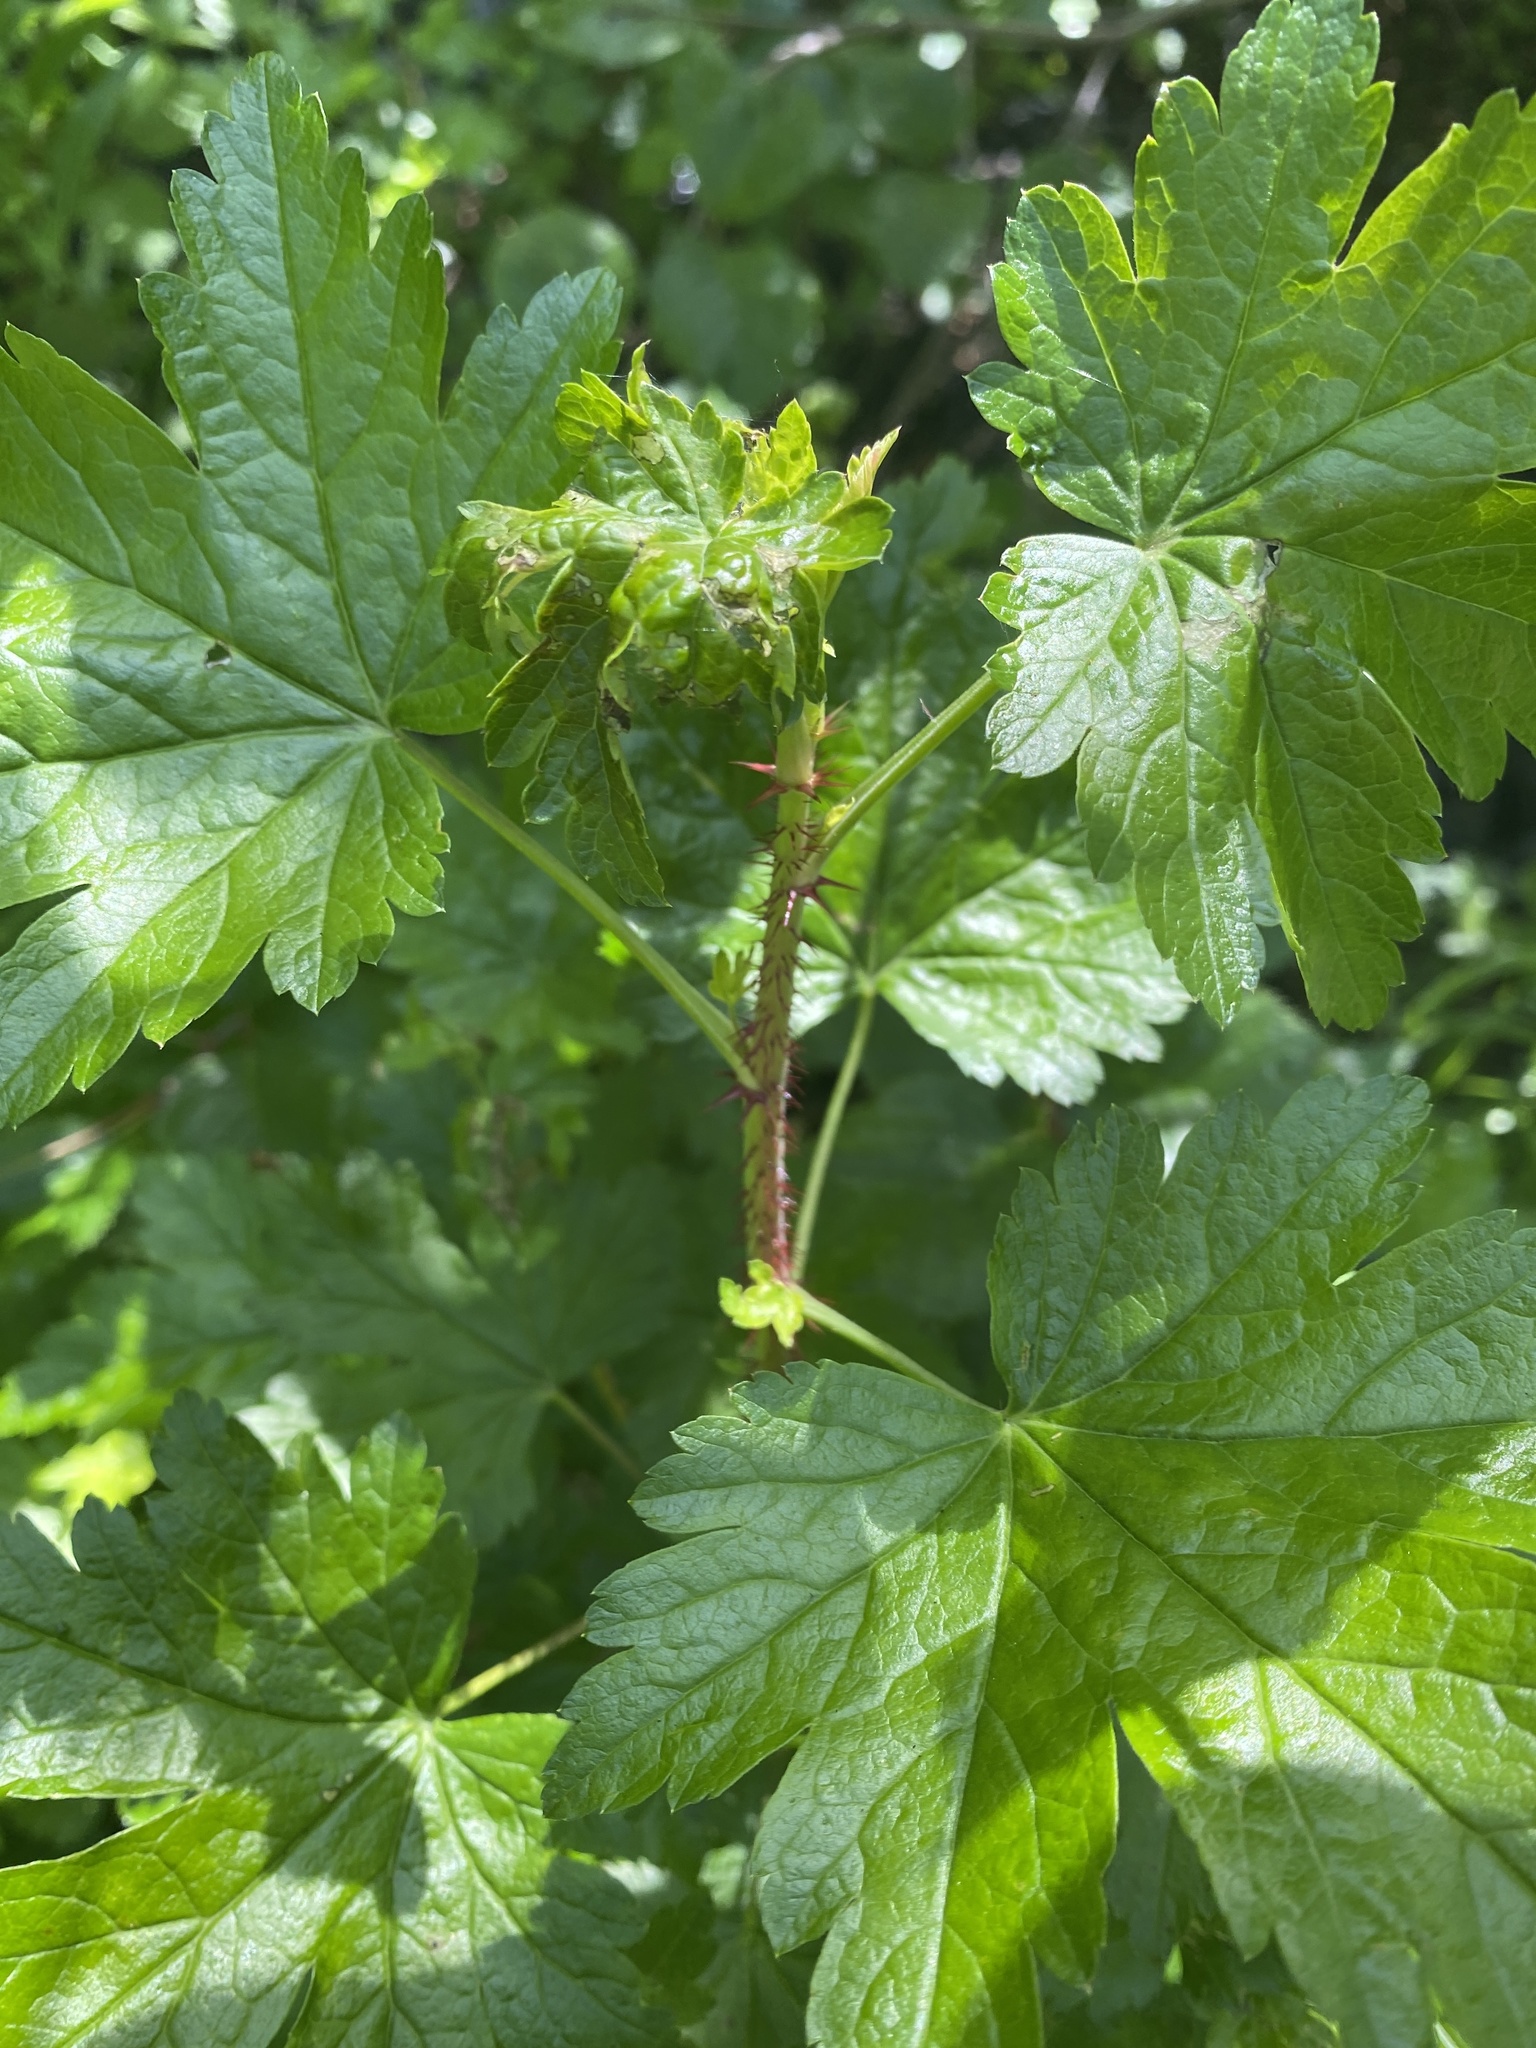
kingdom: Plantae
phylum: Tracheophyta
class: Magnoliopsida
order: Saxifragales
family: Grossulariaceae
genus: Ribes
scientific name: Ribes lacustre
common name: Black gooseberry
